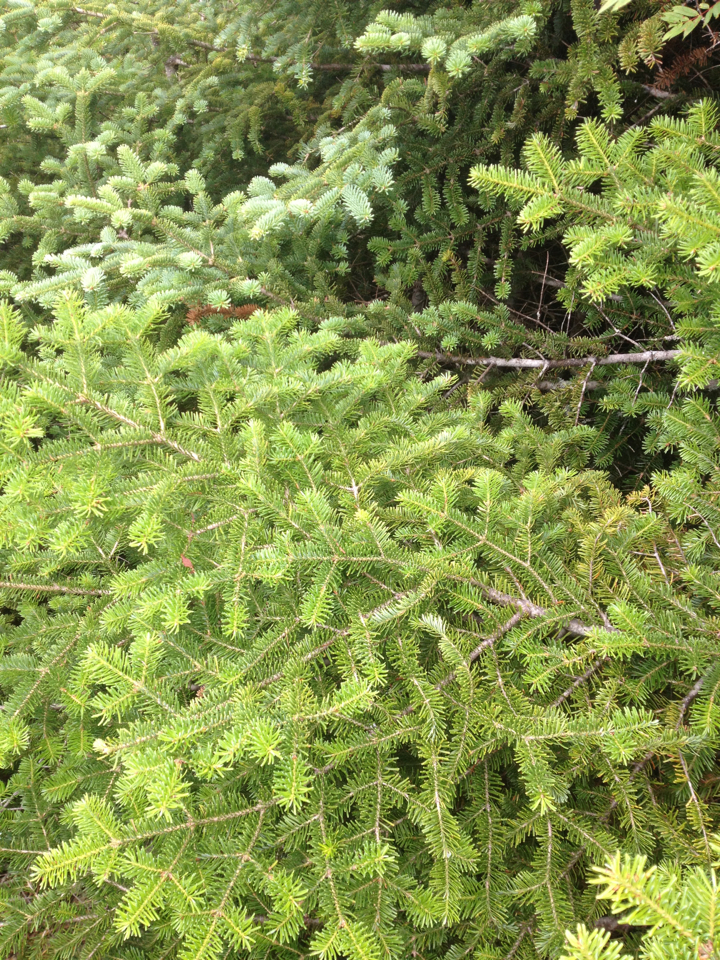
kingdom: Plantae
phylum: Tracheophyta
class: Pinopsida
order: Pinales
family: Pinaceae
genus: Abies
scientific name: Abies balsamea
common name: Balsam fir
